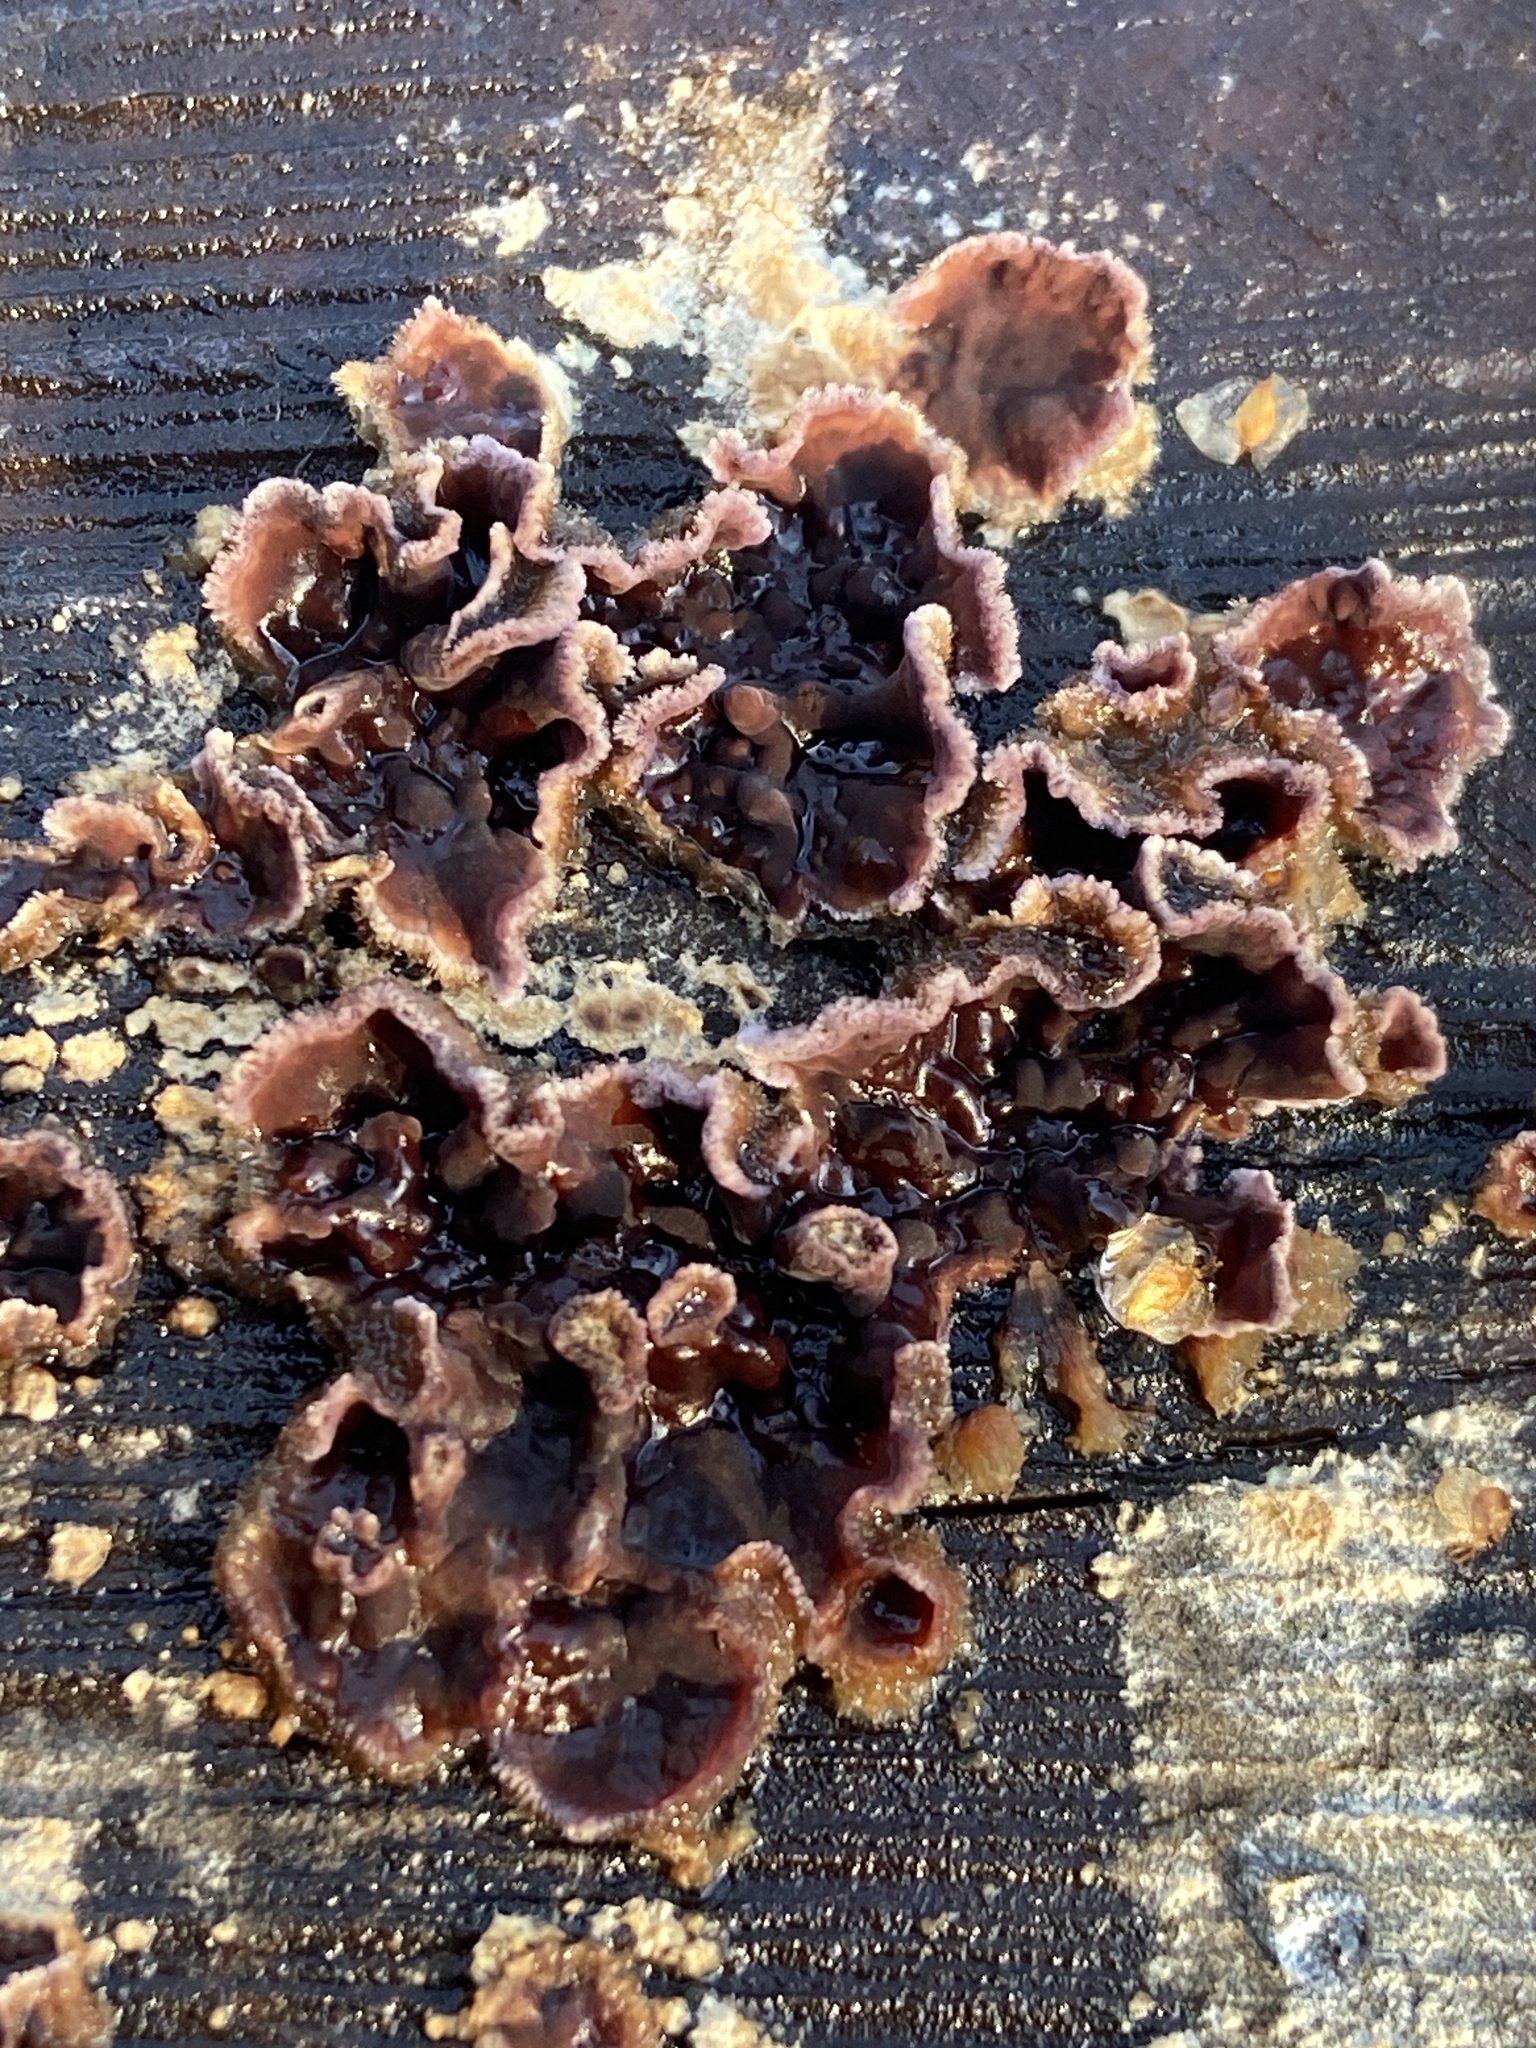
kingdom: Fungi
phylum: Basidiomycota
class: Agaricomycetes
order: Agaricales
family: Cyphellaceae
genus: Chondrostereum
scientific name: Chondrostereum purpureum
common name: Silver leaf disease
